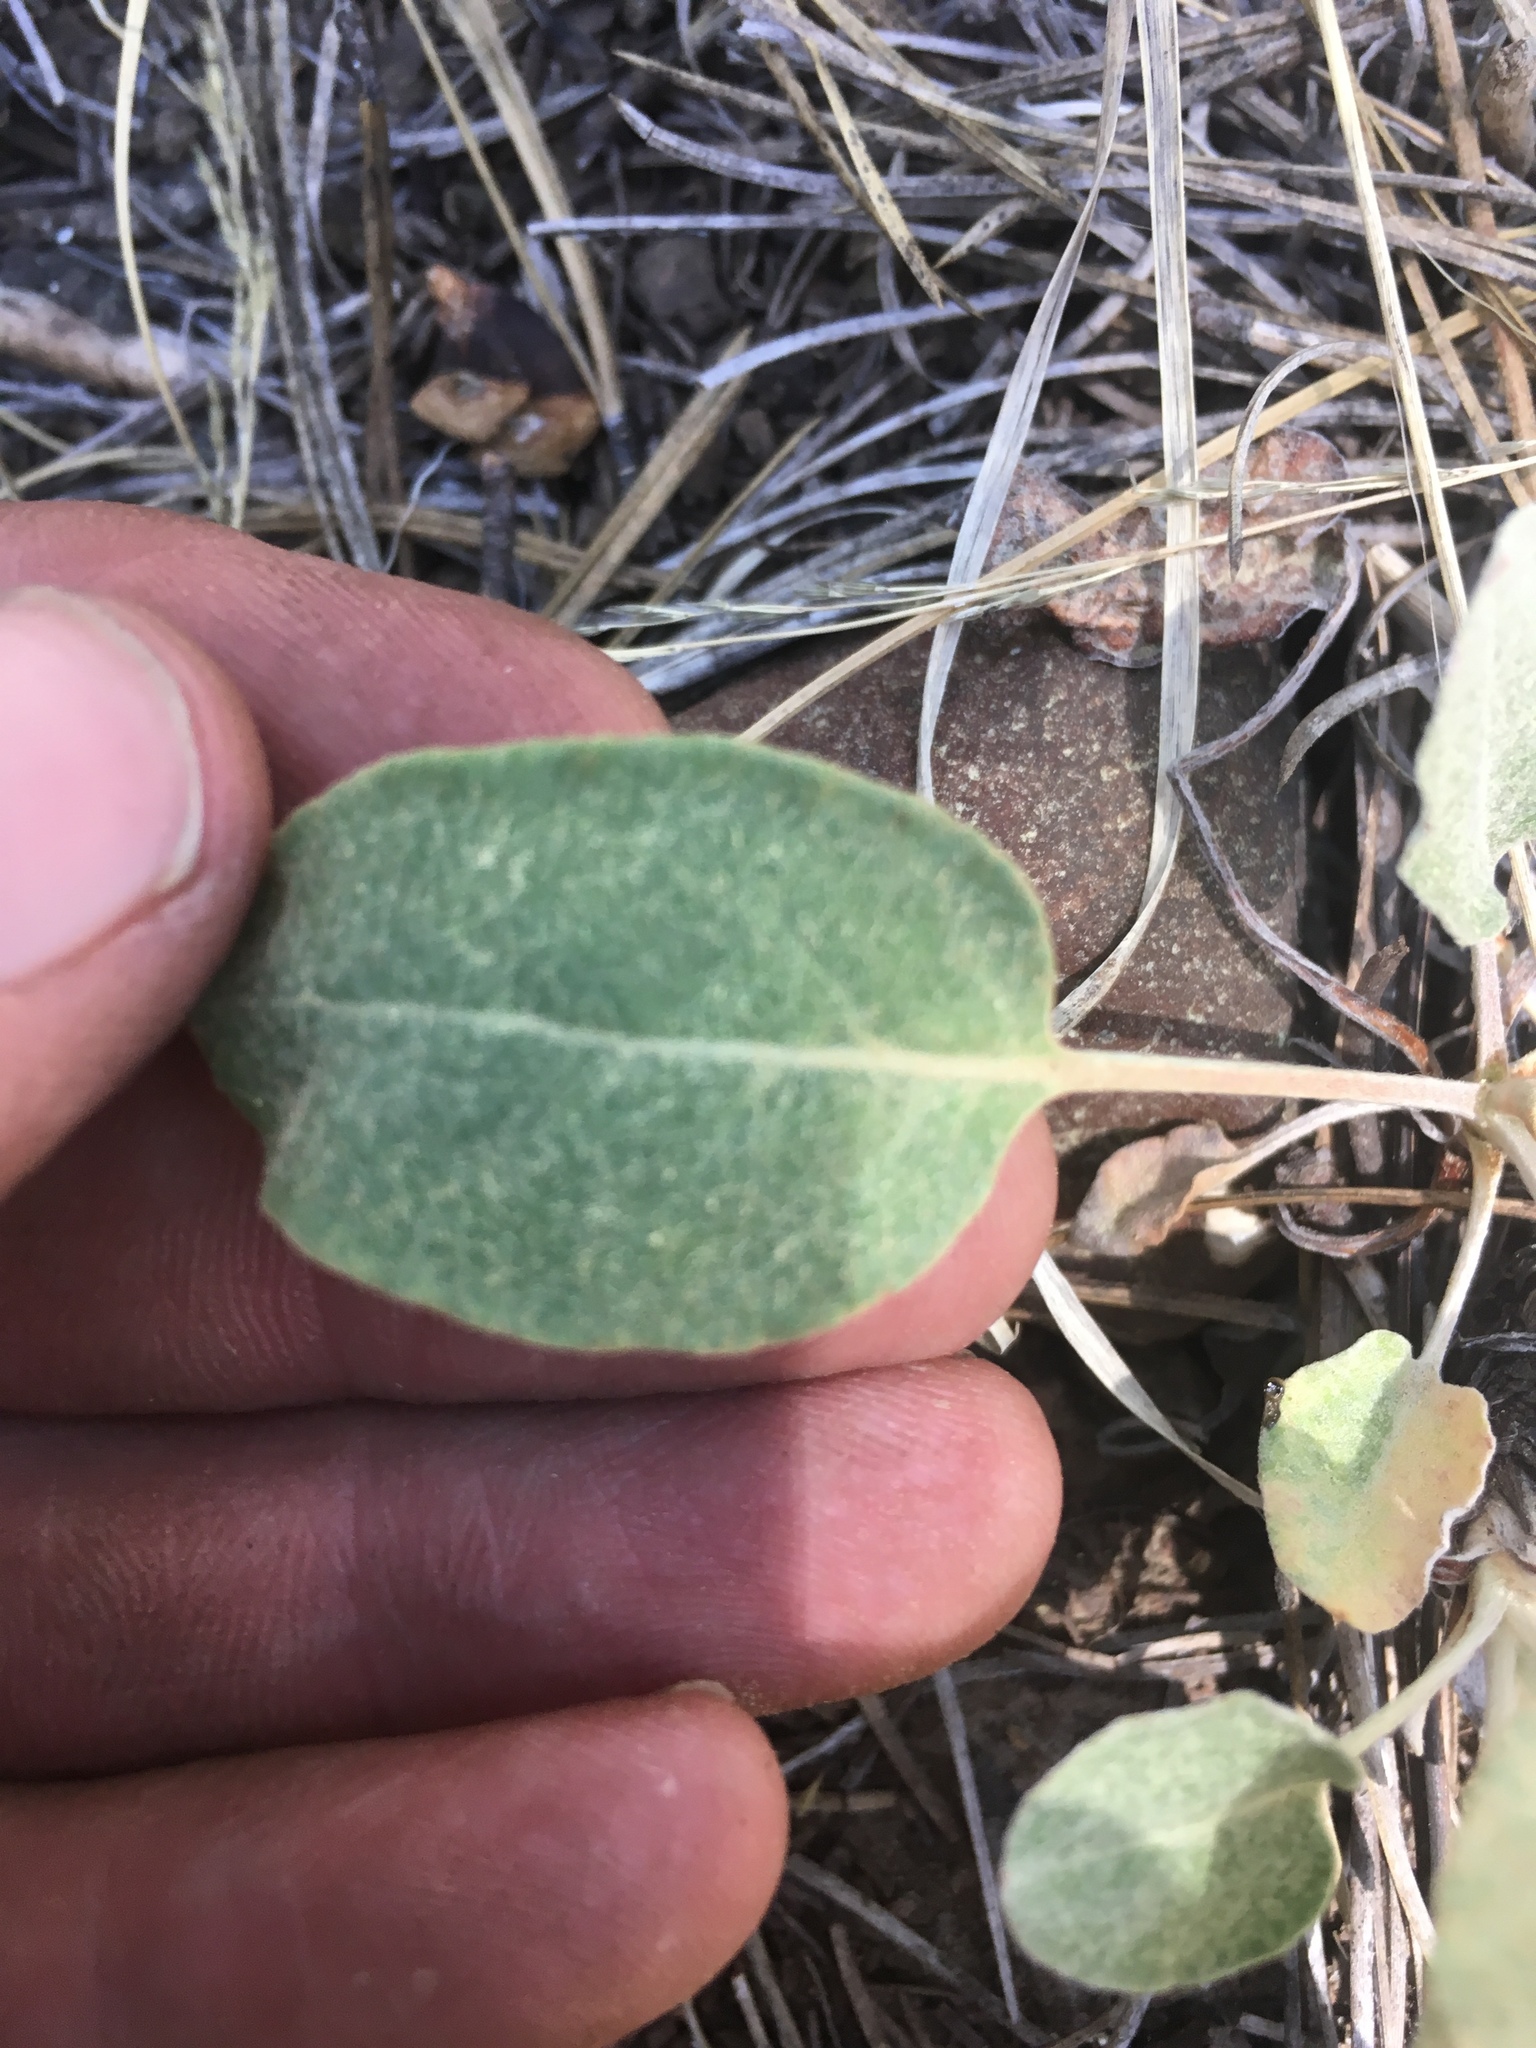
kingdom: Plantae
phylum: Tracheophyta
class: Magnoliopsida
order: Caryophyllales
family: Polygonaceae
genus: Eriogonum
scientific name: Eriogonum racemosum
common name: Redroot wild buckwheat
